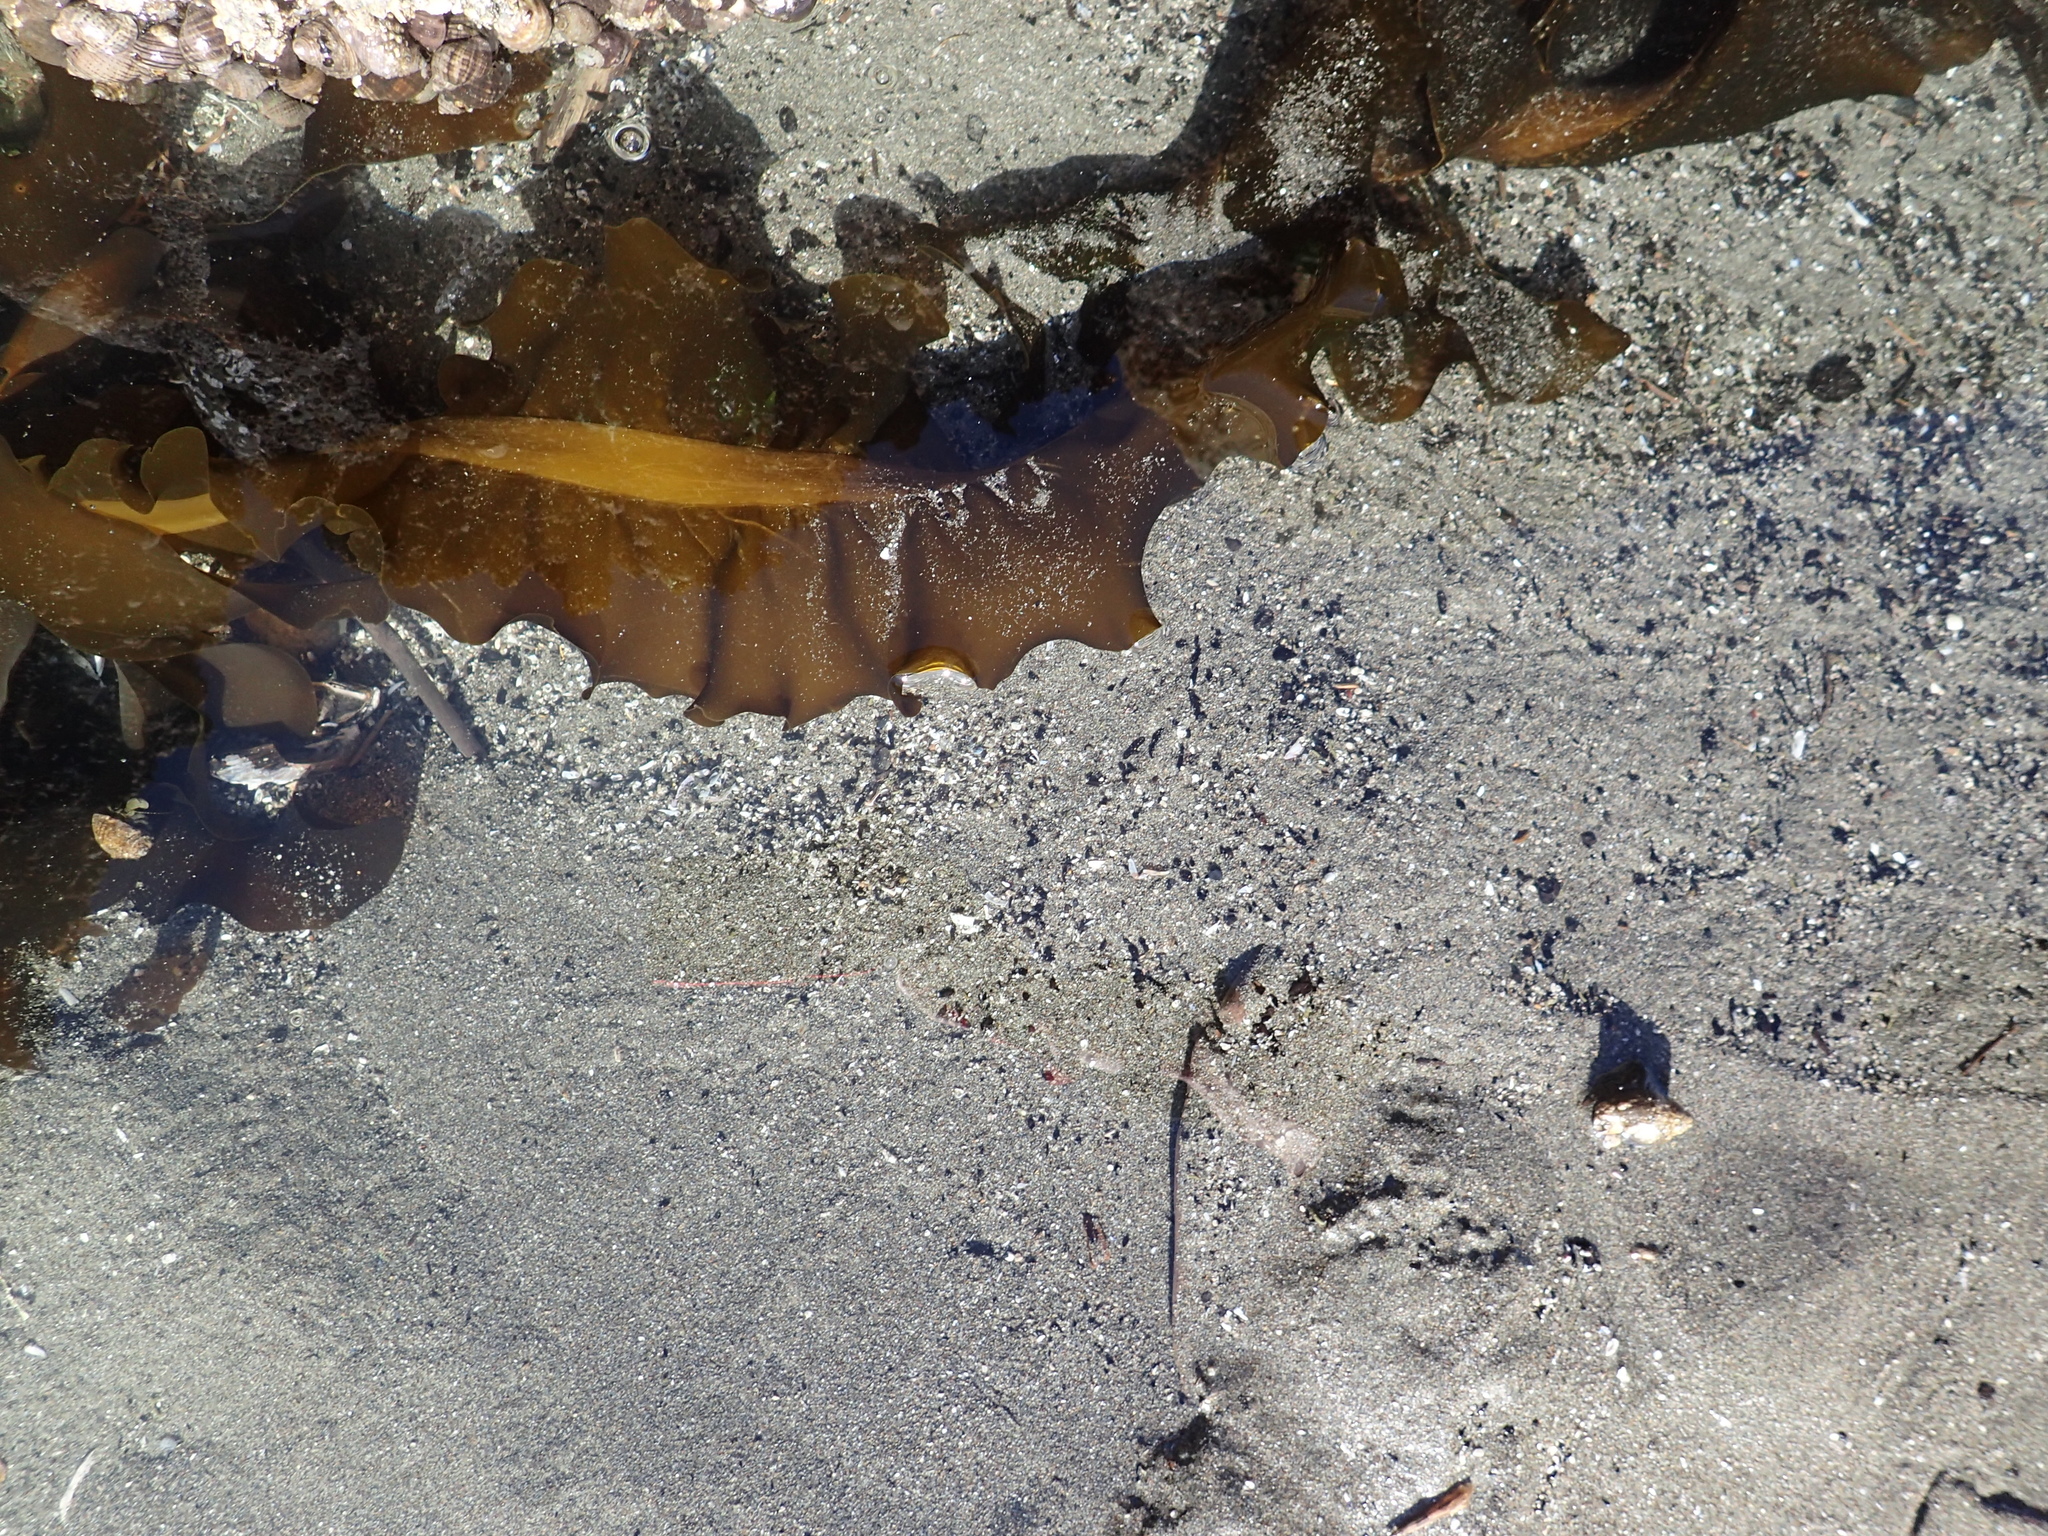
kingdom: Chromista
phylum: Ochrophyta
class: Phaeophyceae
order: Laminariales
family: Alariaceae
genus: Alaria
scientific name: Alaria marginata
